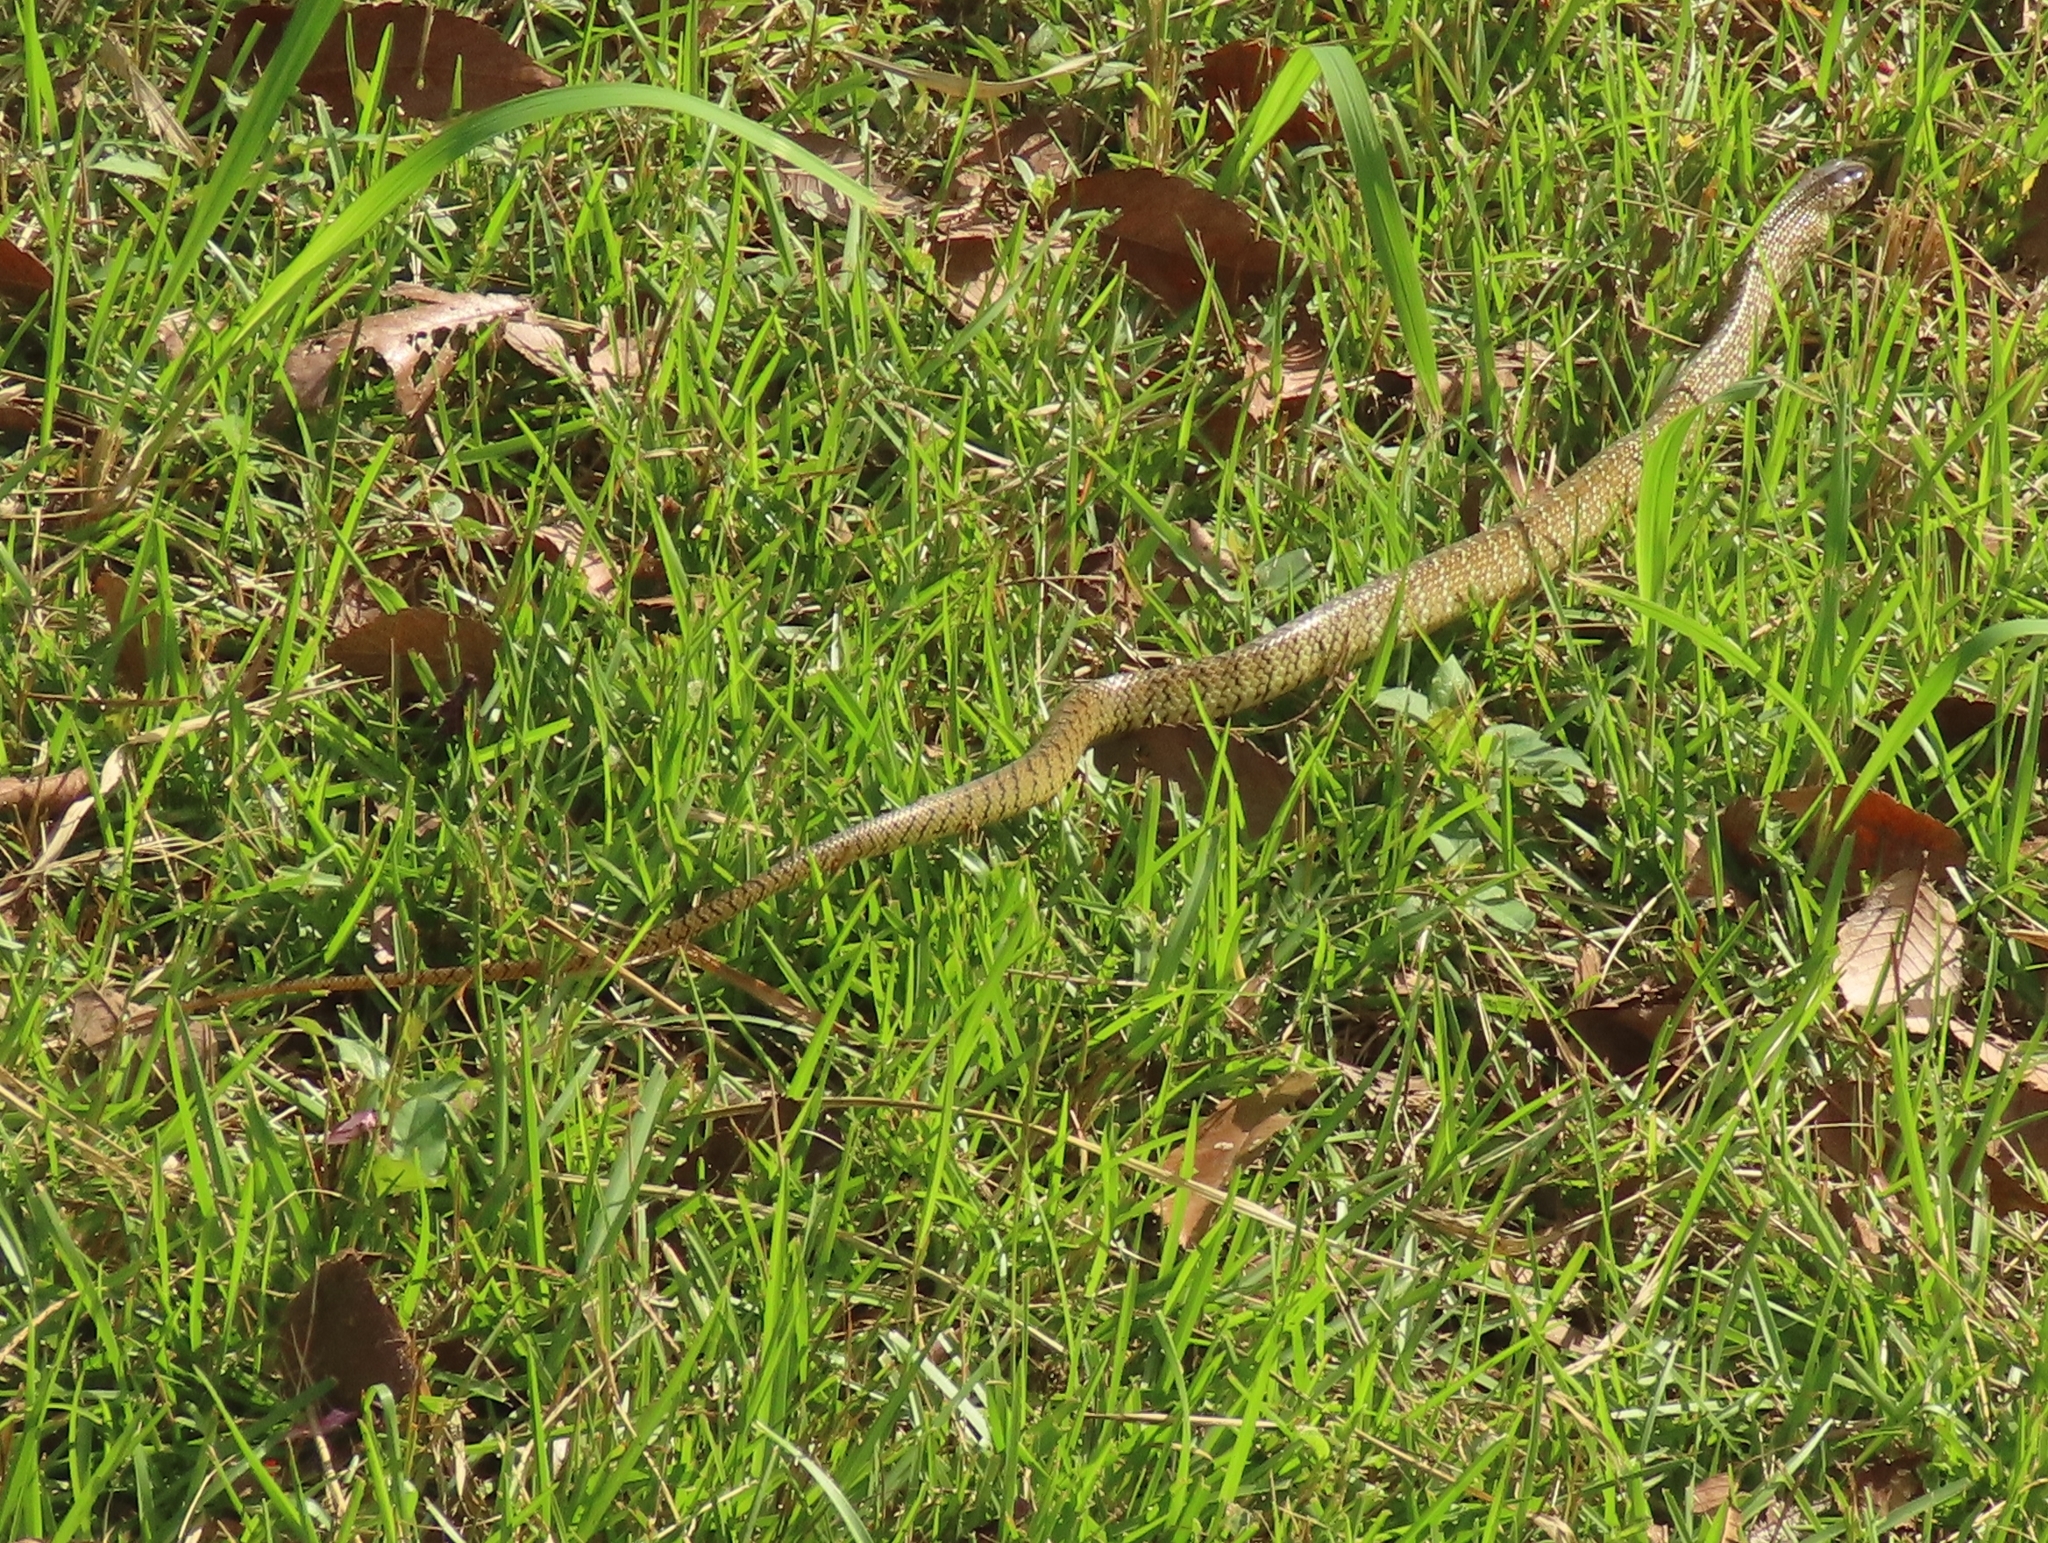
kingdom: Animalia
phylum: Chordata
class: Squamata
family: Colubridae
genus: Ptyas
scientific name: Ptyas mucosa
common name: Oriental ratsnake
